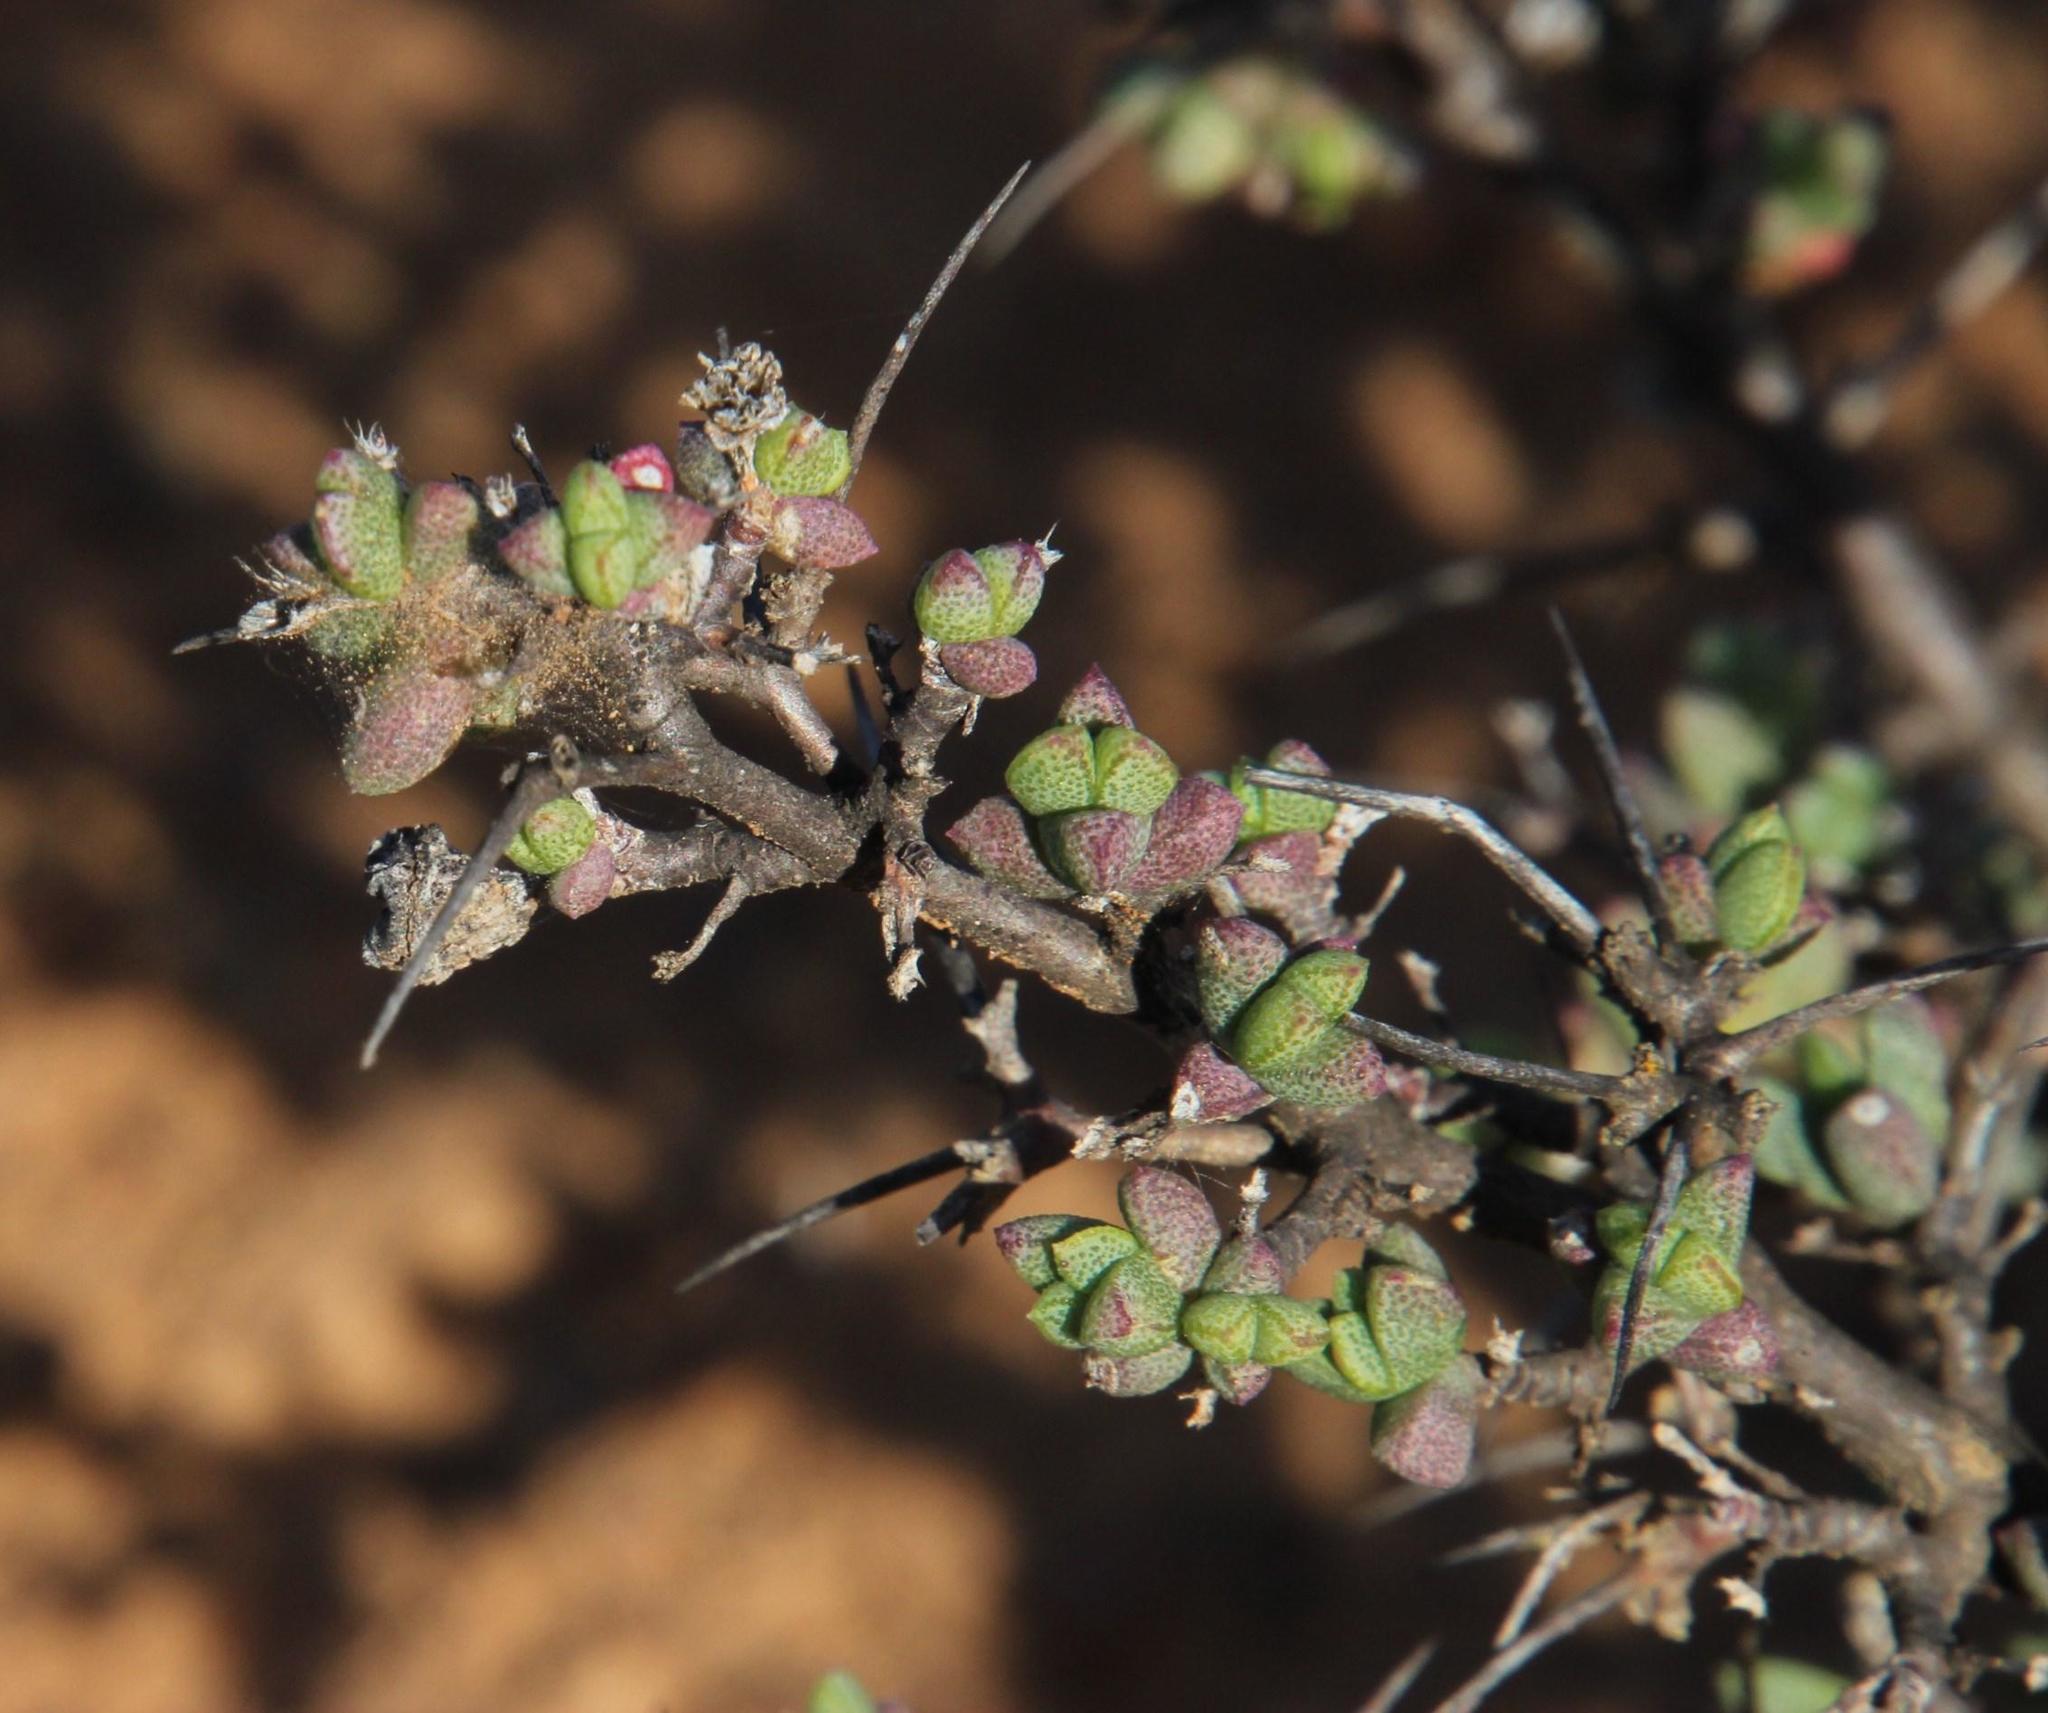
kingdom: Plantae
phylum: Tracheophyta
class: Magnoliopsida
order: Caryophyllales
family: Aizoaceae
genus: Ruschia
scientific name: Ruschia cradockensis
